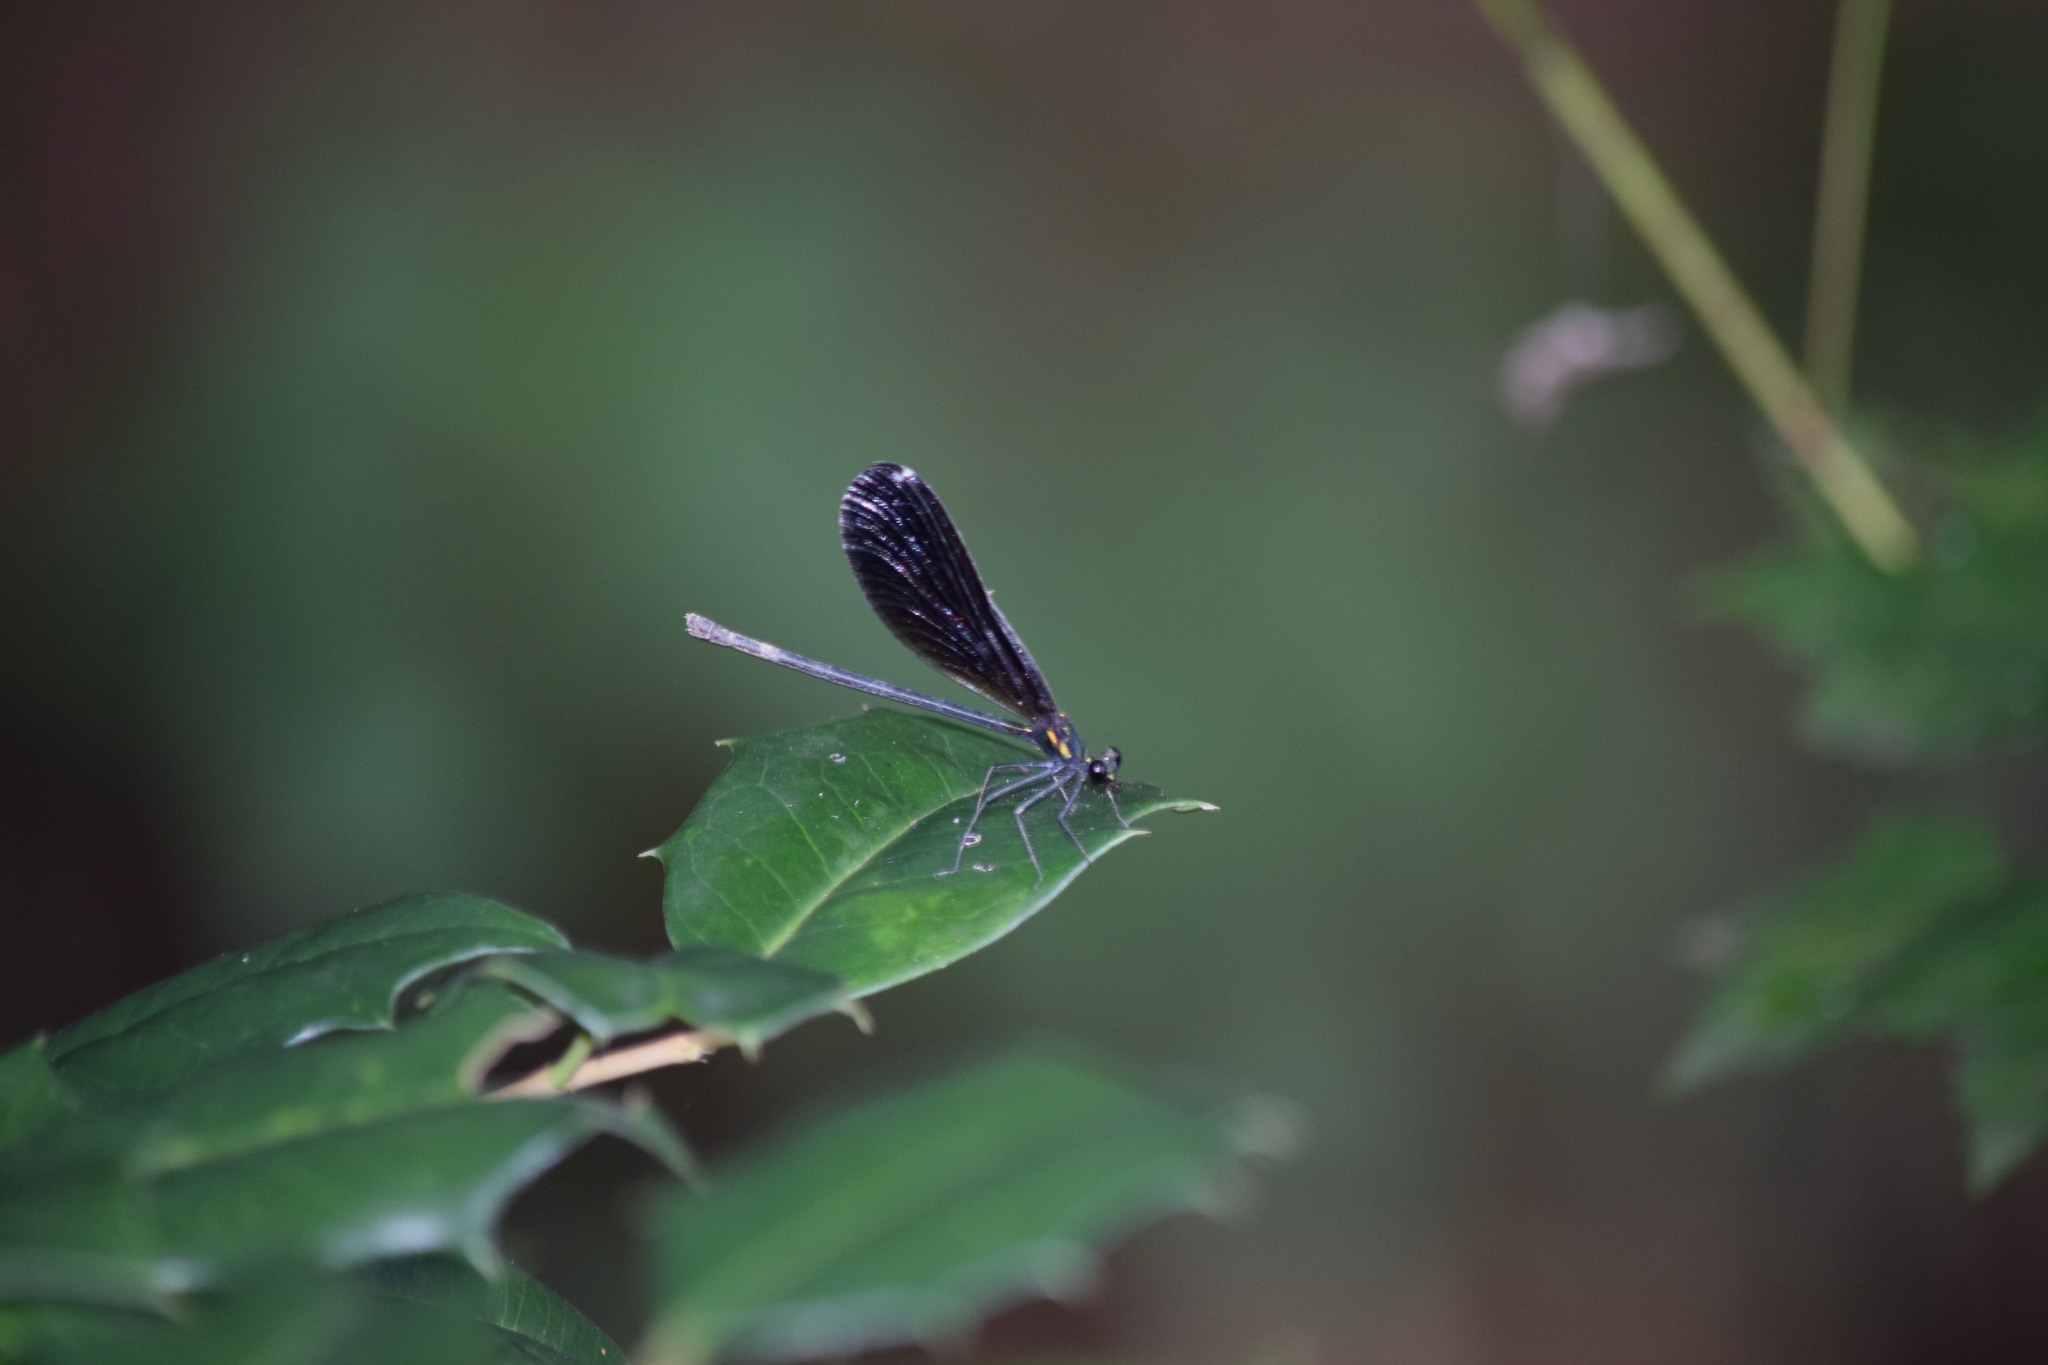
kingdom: Animalia
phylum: Arthropoda
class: Insecta
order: Odonata
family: Calopterygidae
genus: Calopteryx
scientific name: Calopteryx maculata
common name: Ebony jewelwing
